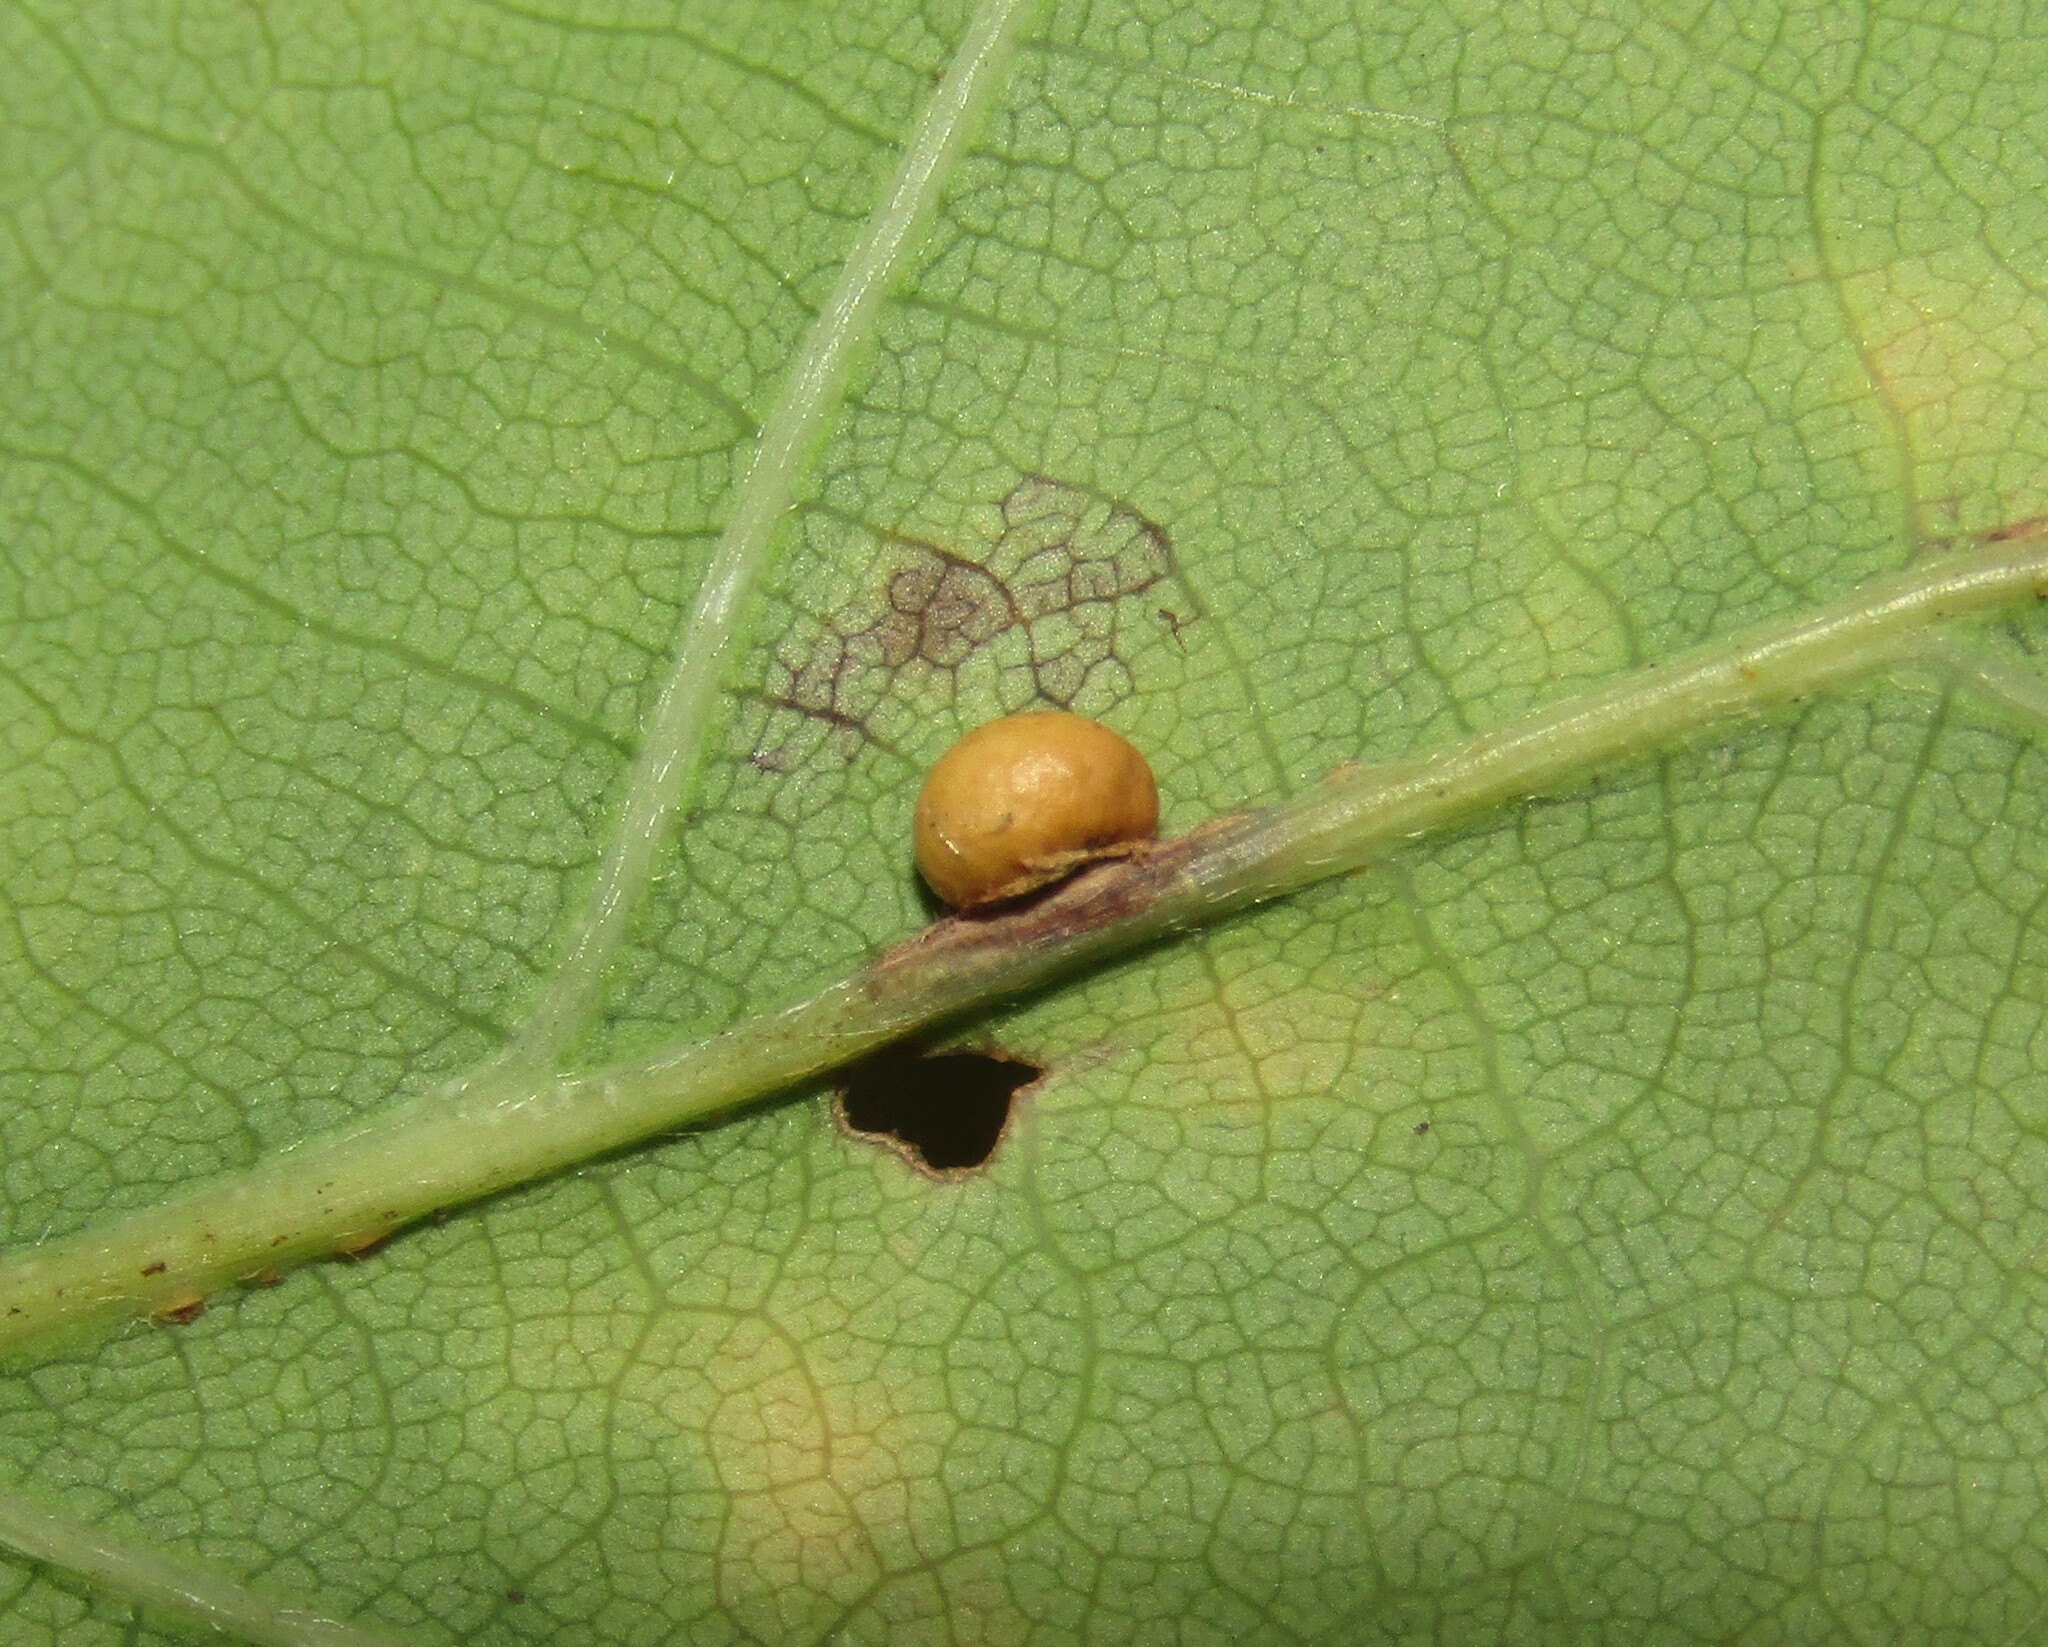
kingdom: Animalia
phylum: Arthropoda
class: Insecta
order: Hymenoptera
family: Cynipidae
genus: Neuroterus
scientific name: Neuroterus anthracinus
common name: Oyster gall
